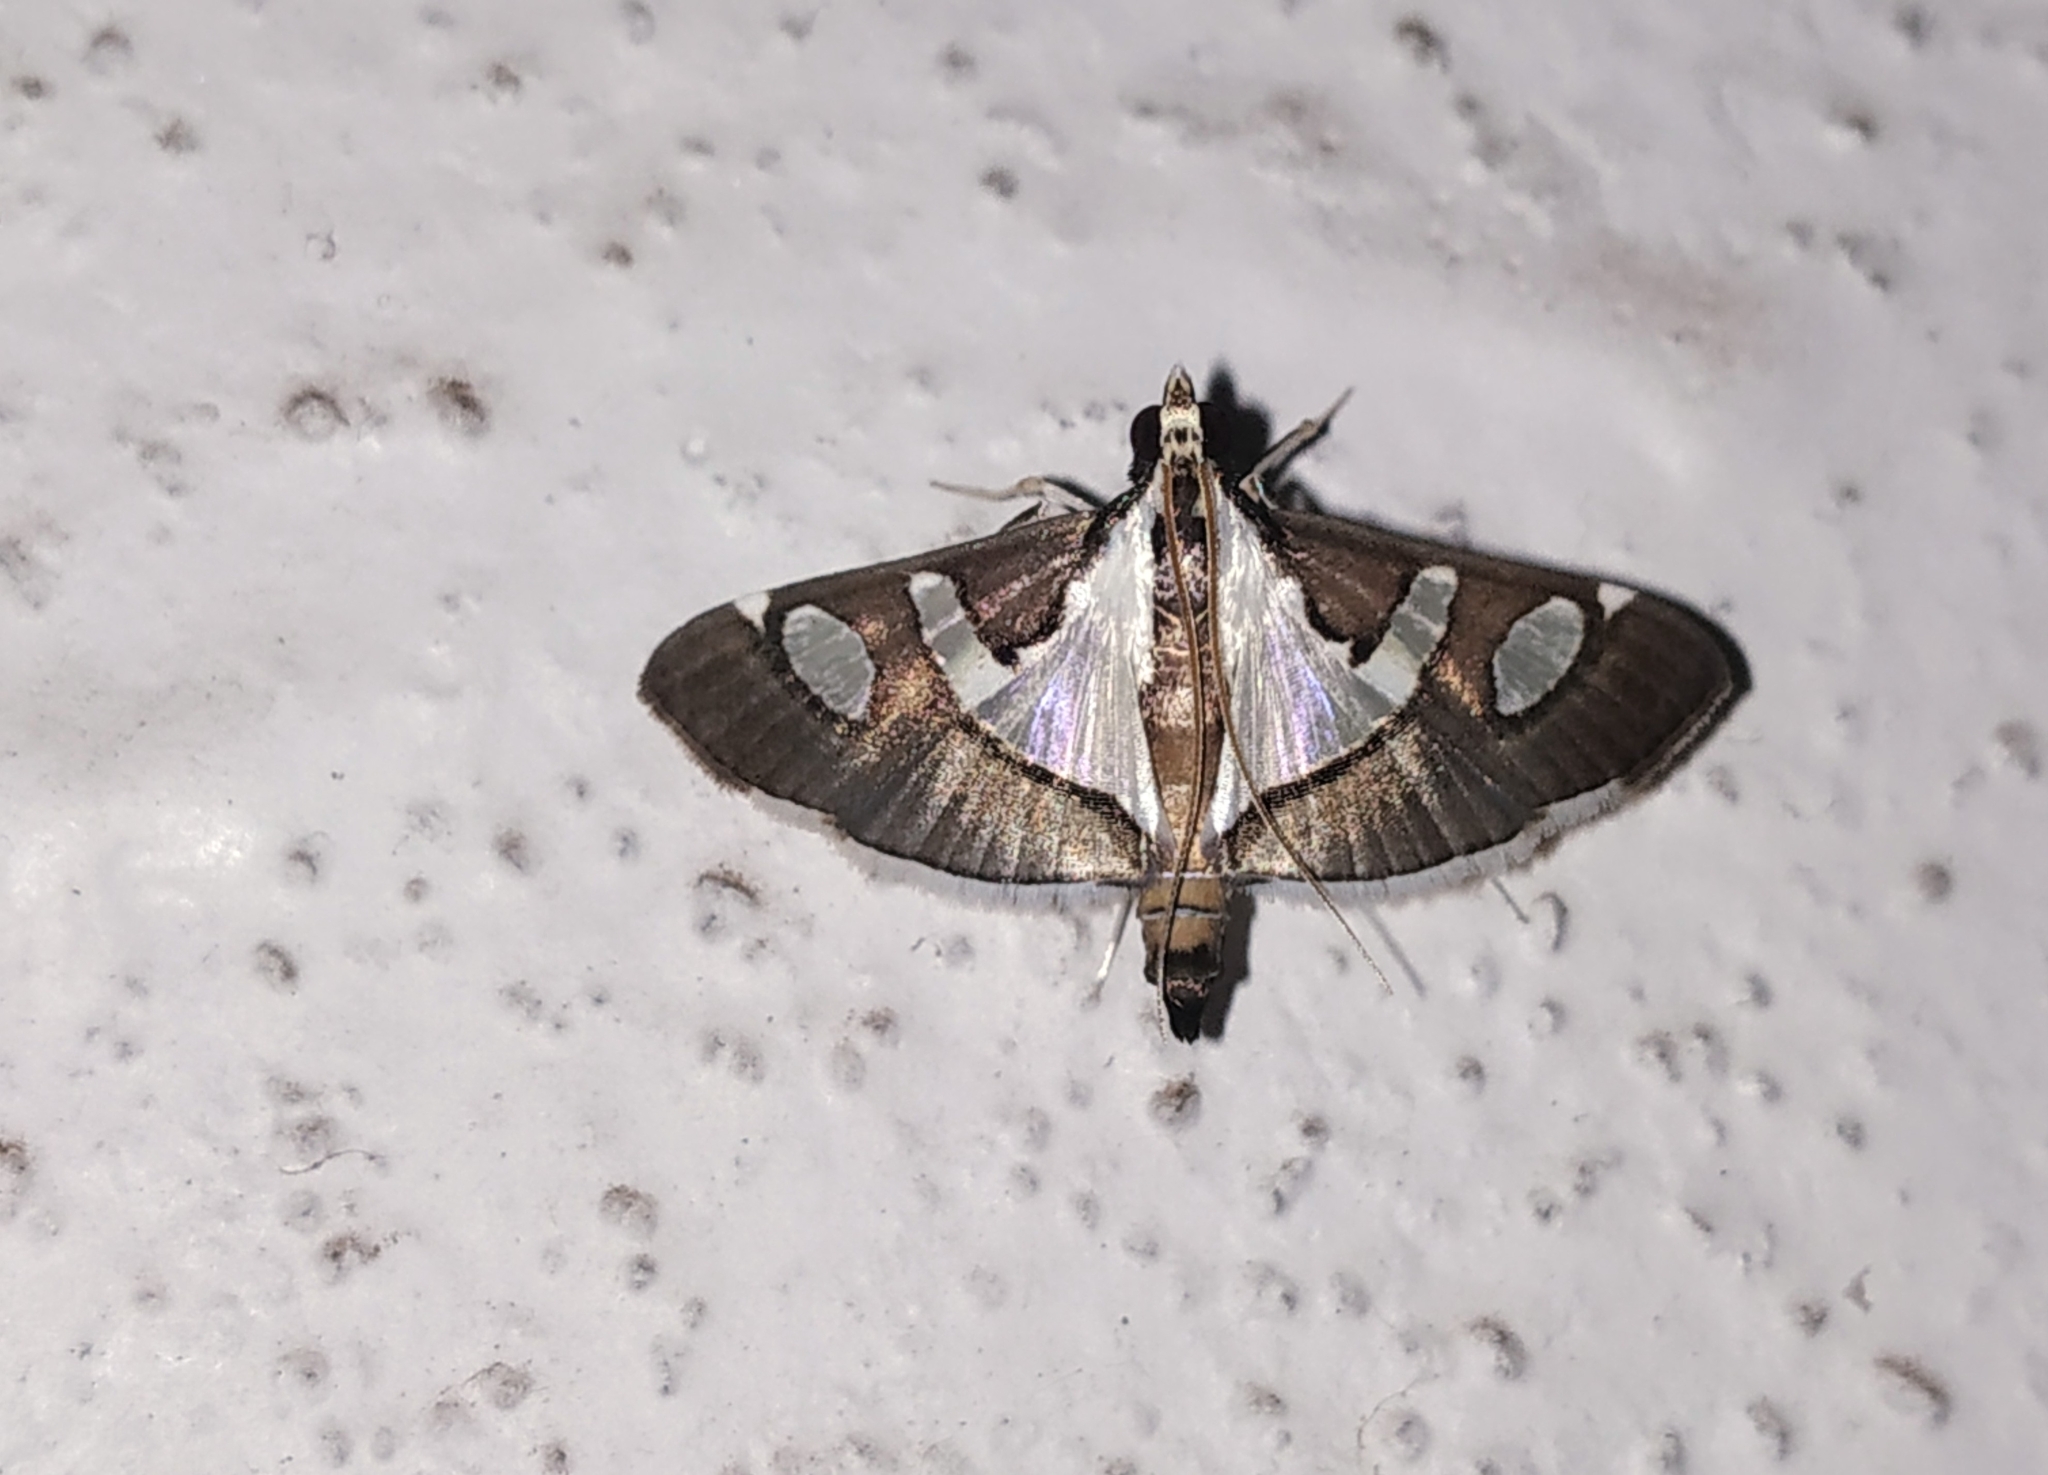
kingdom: Animalia
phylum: Arthropoda
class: Insecta
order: Lepidoptera
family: Crambidae
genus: Glyphodes
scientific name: Glyphodes bicolor
